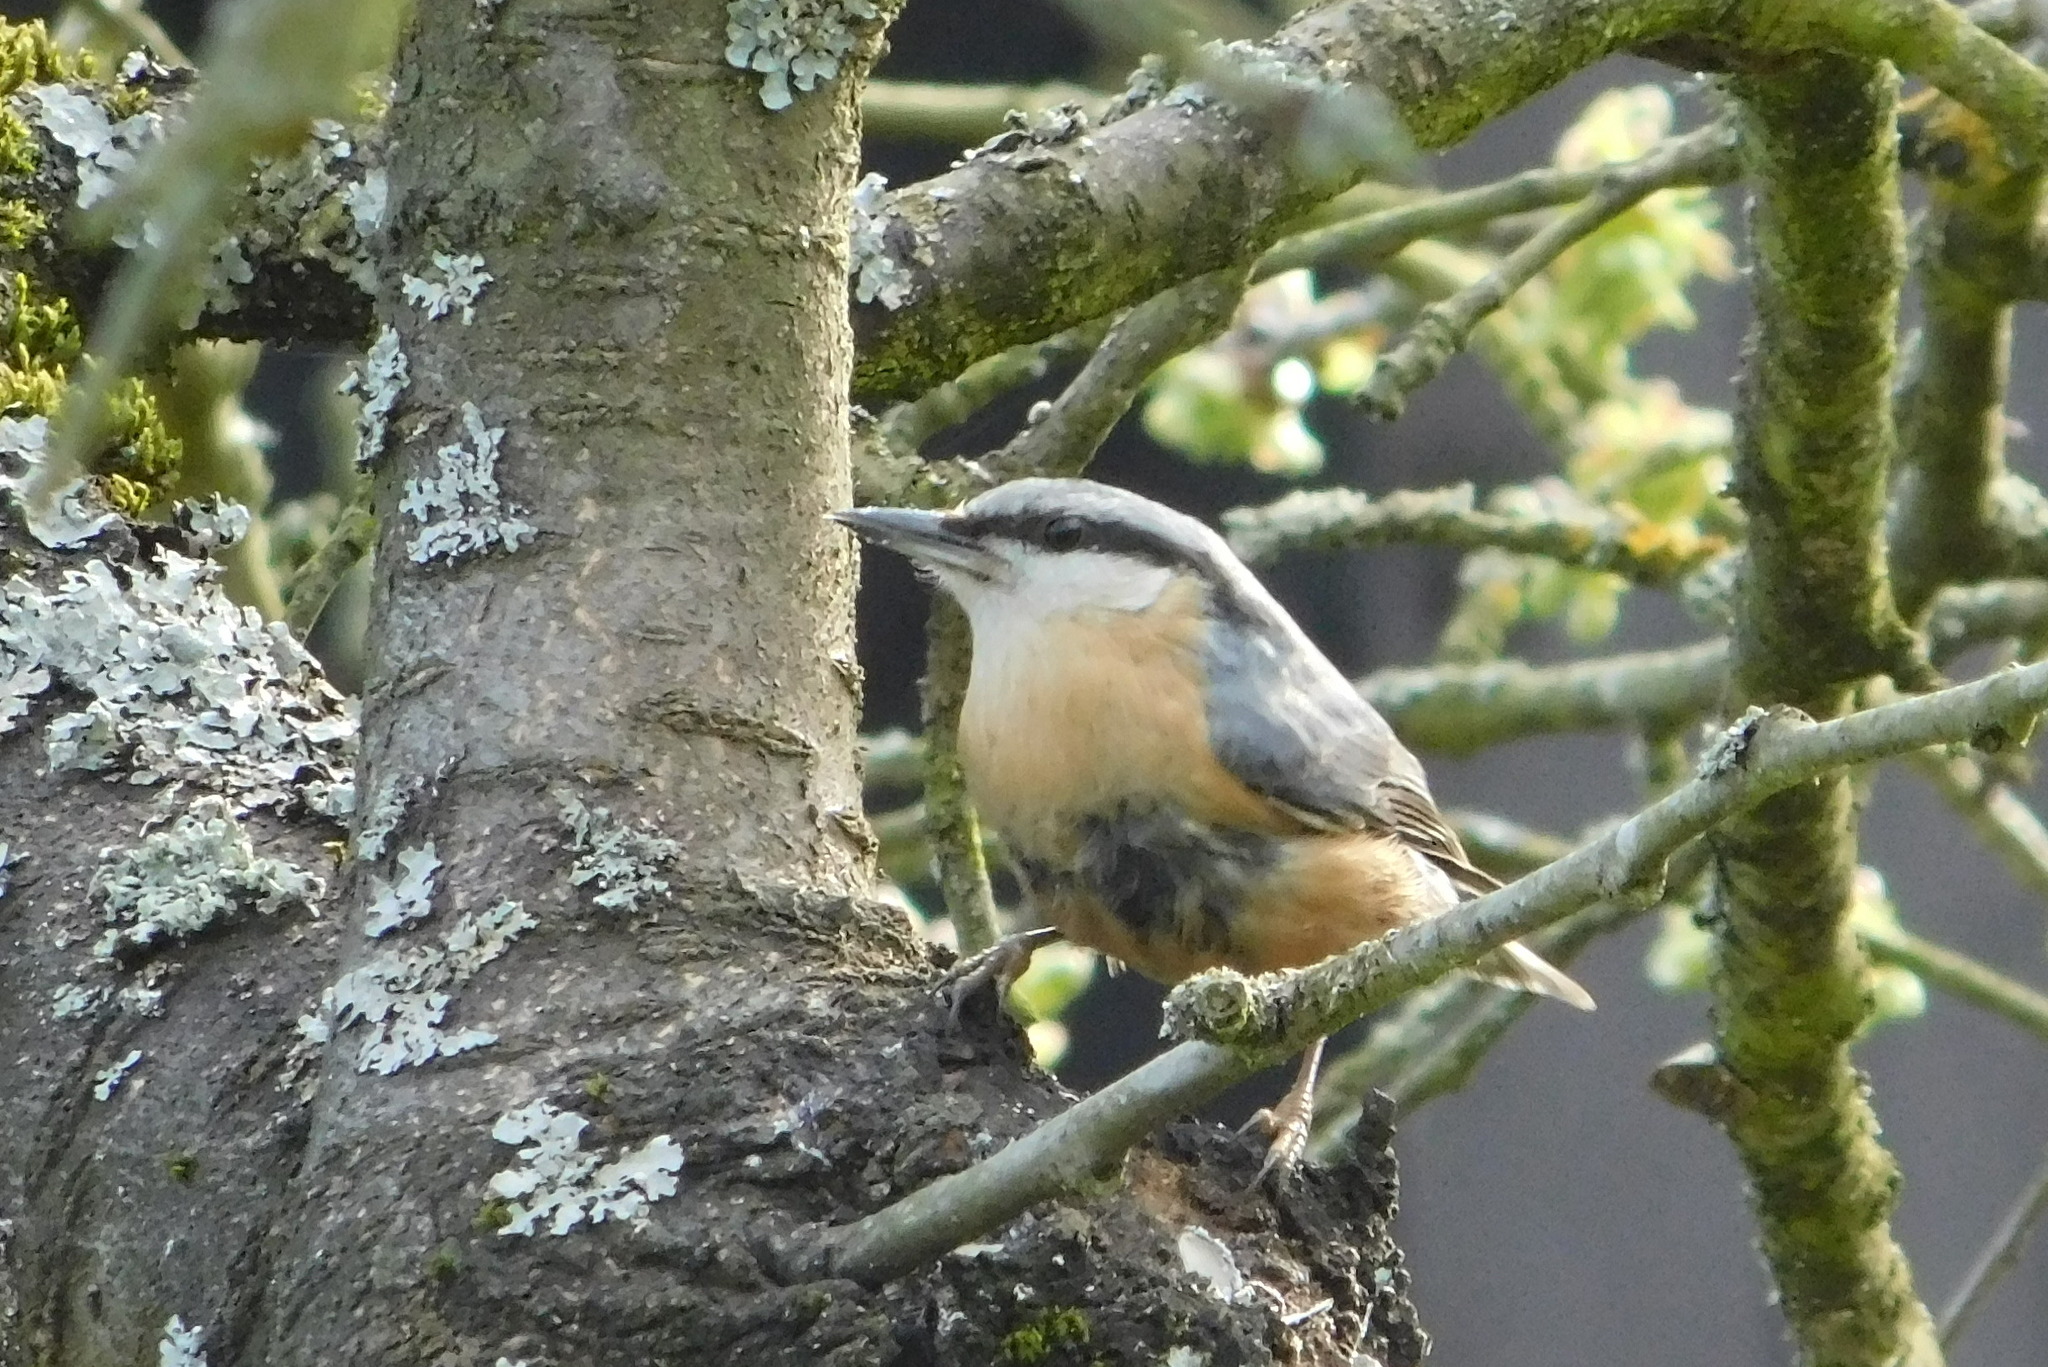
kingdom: Animalia
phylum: Chordata
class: Aves
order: Passeriformes
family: Sittidae
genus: Sitta
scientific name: Sitta europaea
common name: Eurasian nuthatch
